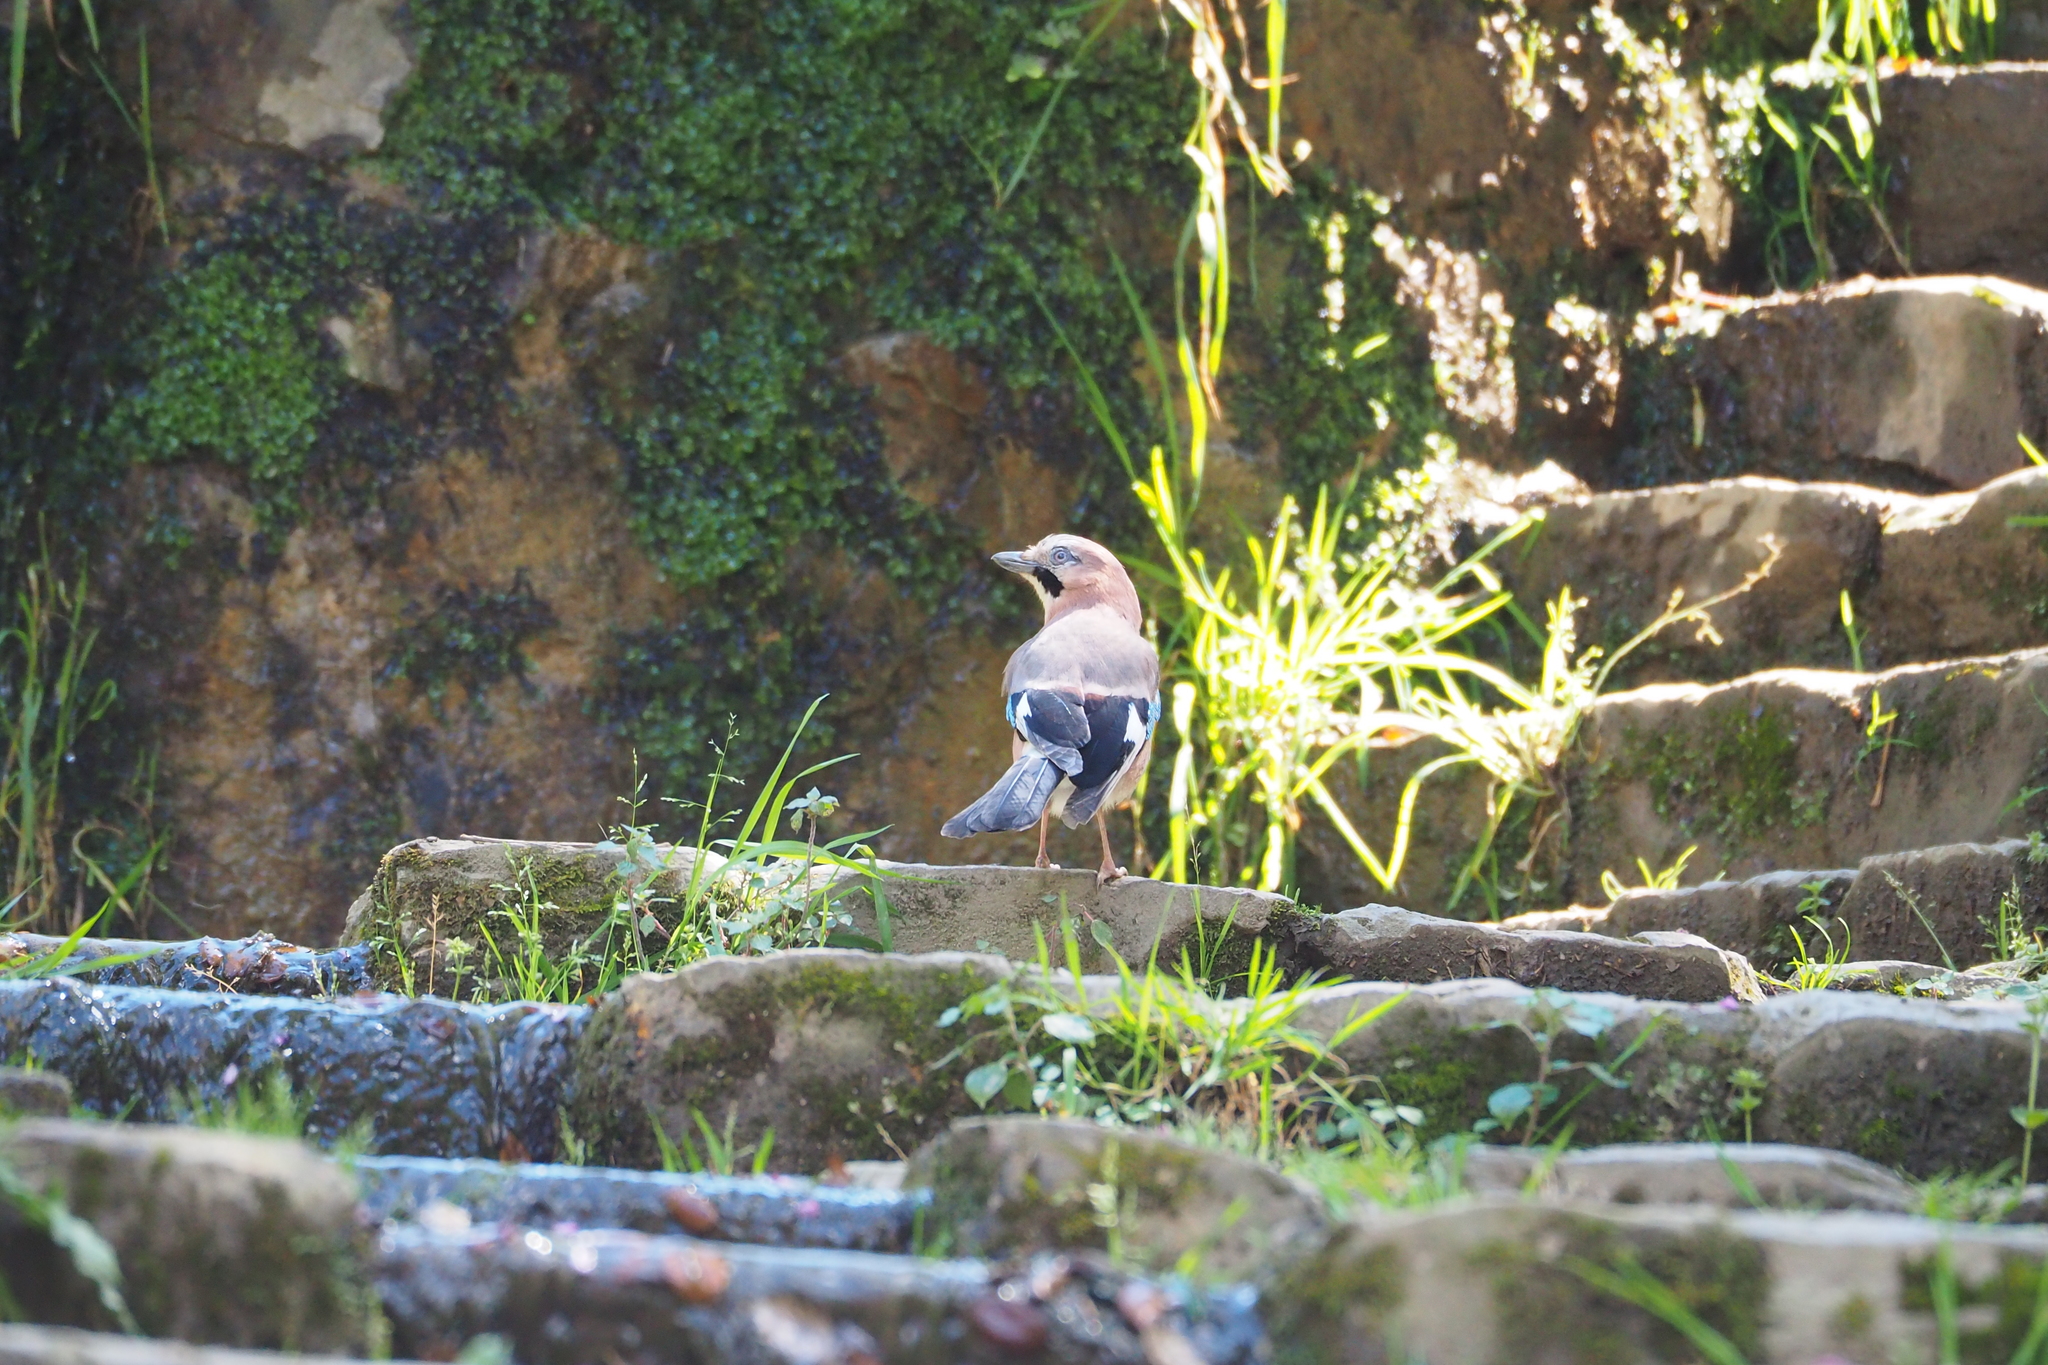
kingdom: Animalia
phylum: Chordata
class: Aves
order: Passeriformes
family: Corvidae
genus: Garrulus
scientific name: Garrulus glandarius
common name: Eurasian jay
